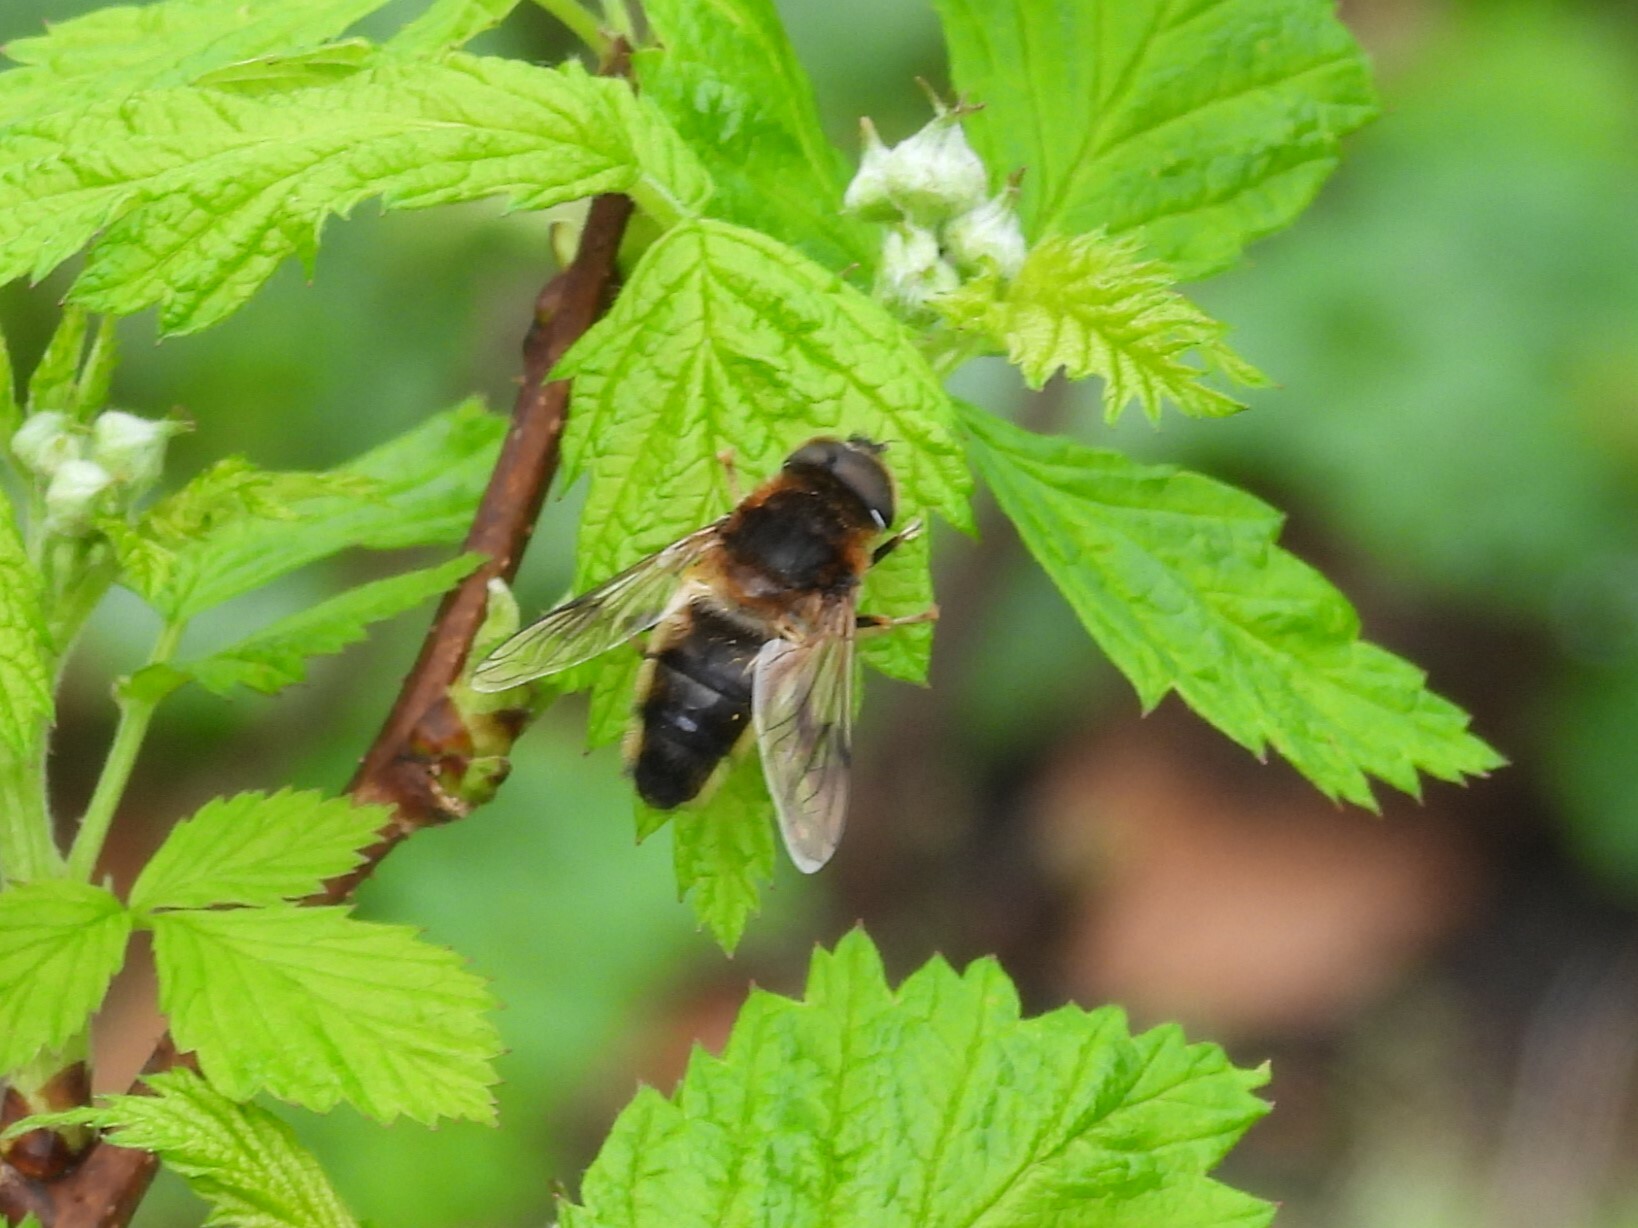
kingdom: Animalia
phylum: Arthropoda
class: Insecta
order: Diptera
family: Syrphidae
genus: Eristalis
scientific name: Eristalis pertinax
